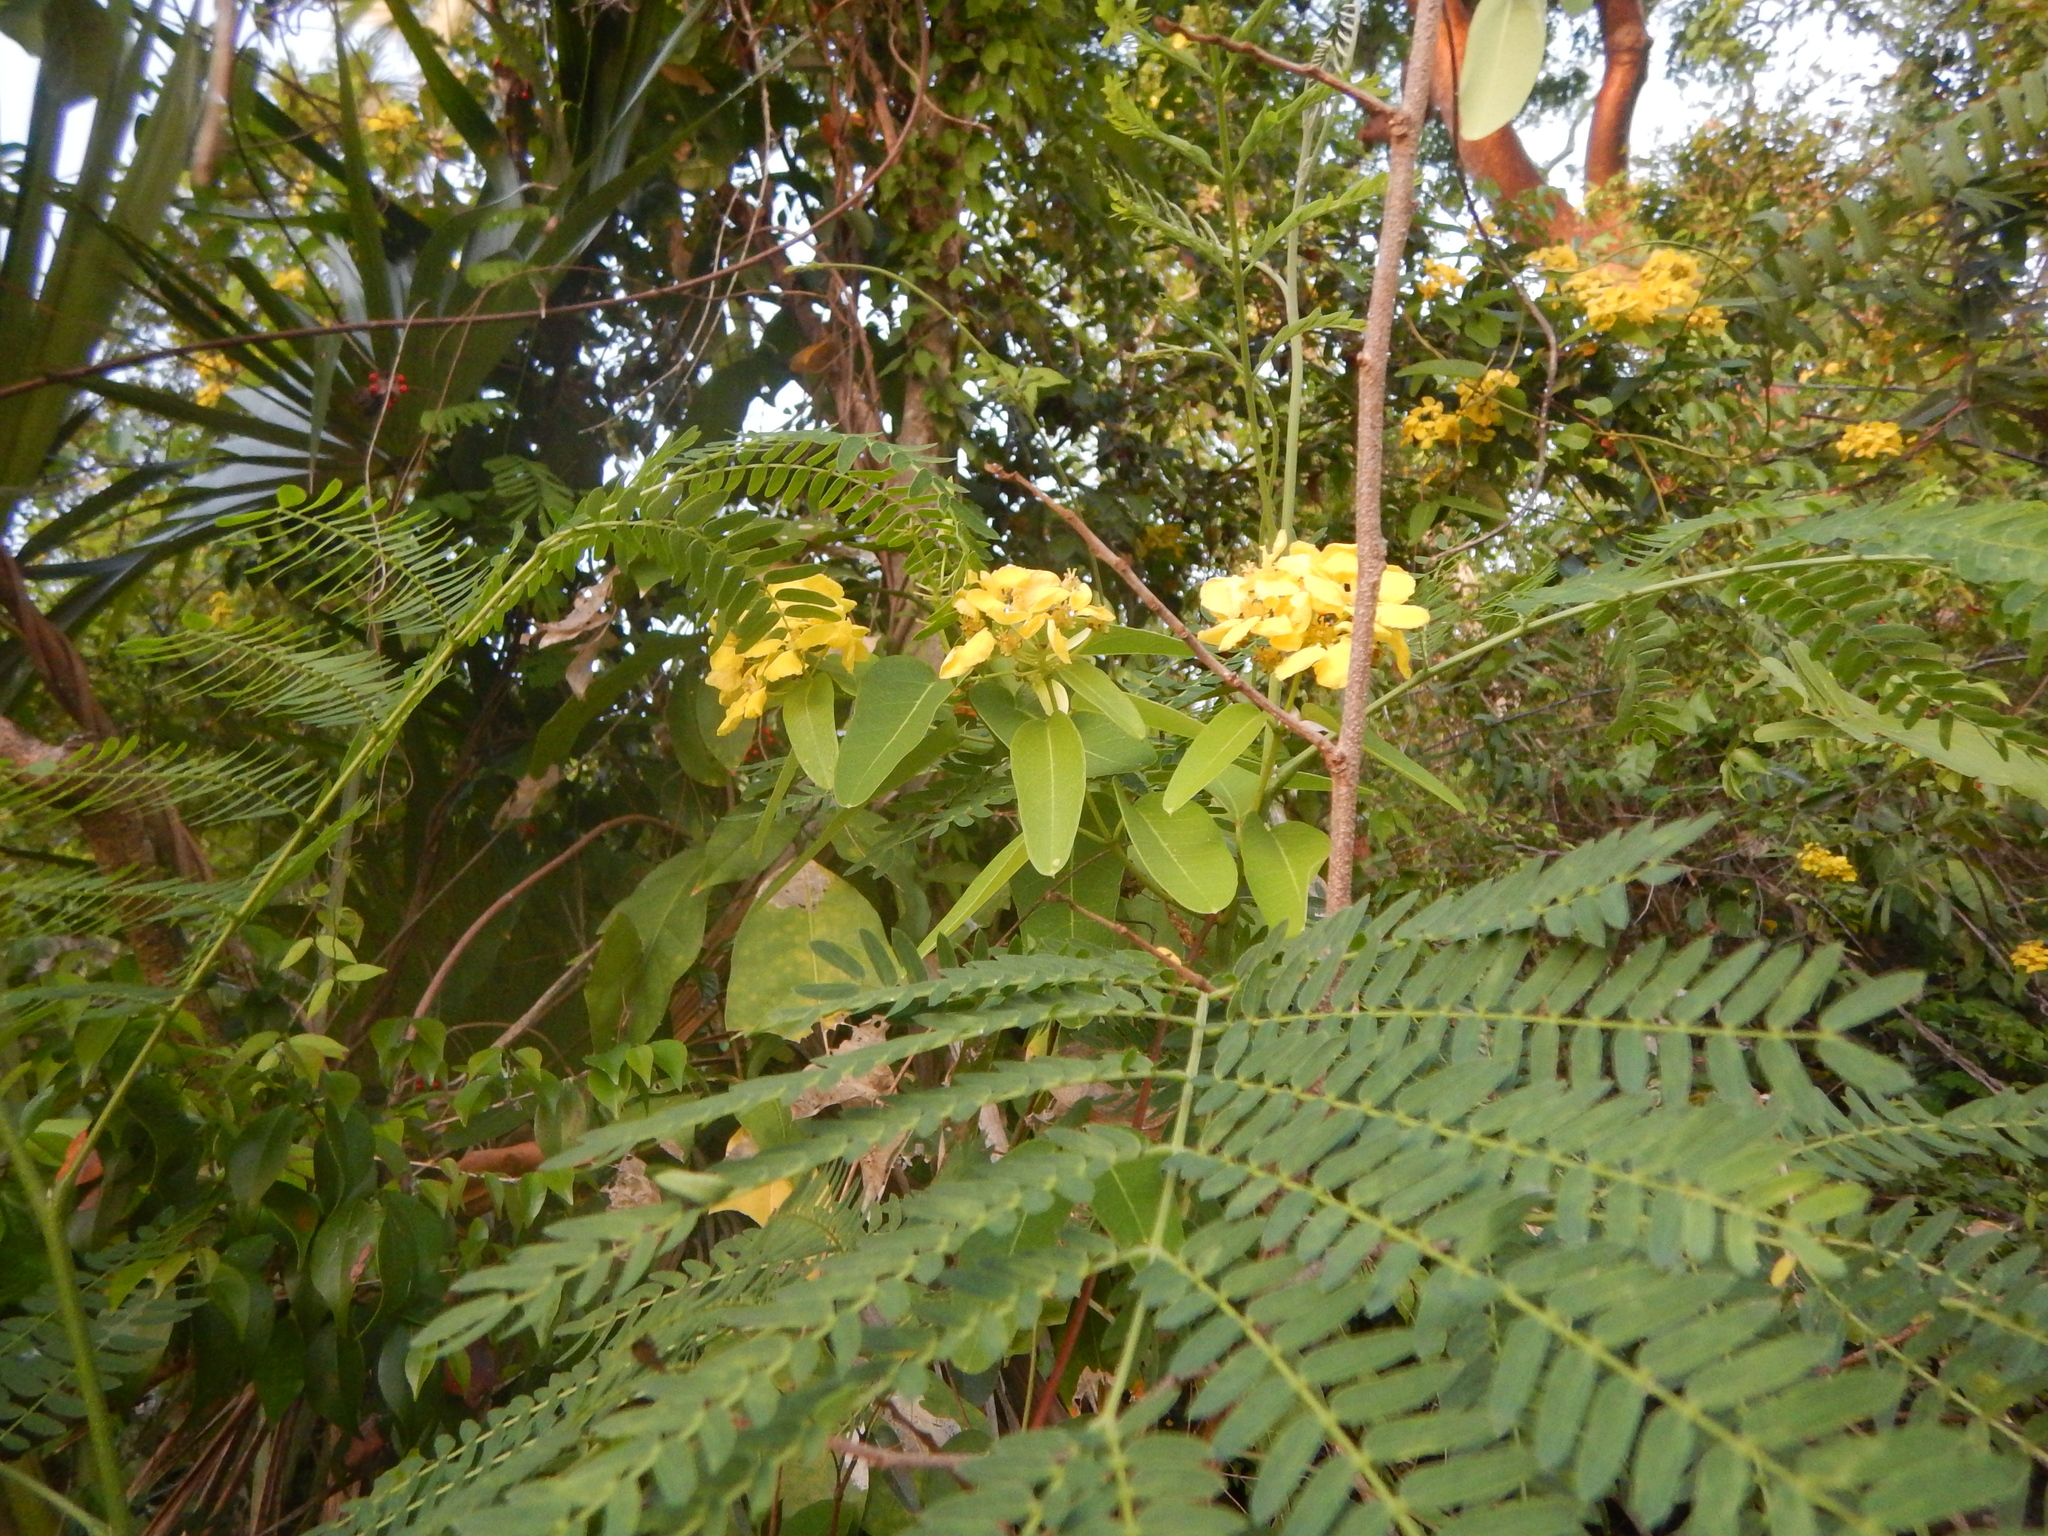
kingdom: Plantae
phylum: Tracheophyta
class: Magnoliopsida
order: Malpighiales
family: Malpighiaceae
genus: Stigmaphyllon
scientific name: Stigmaphyllon emarginatum
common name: Monarch amazonvine
